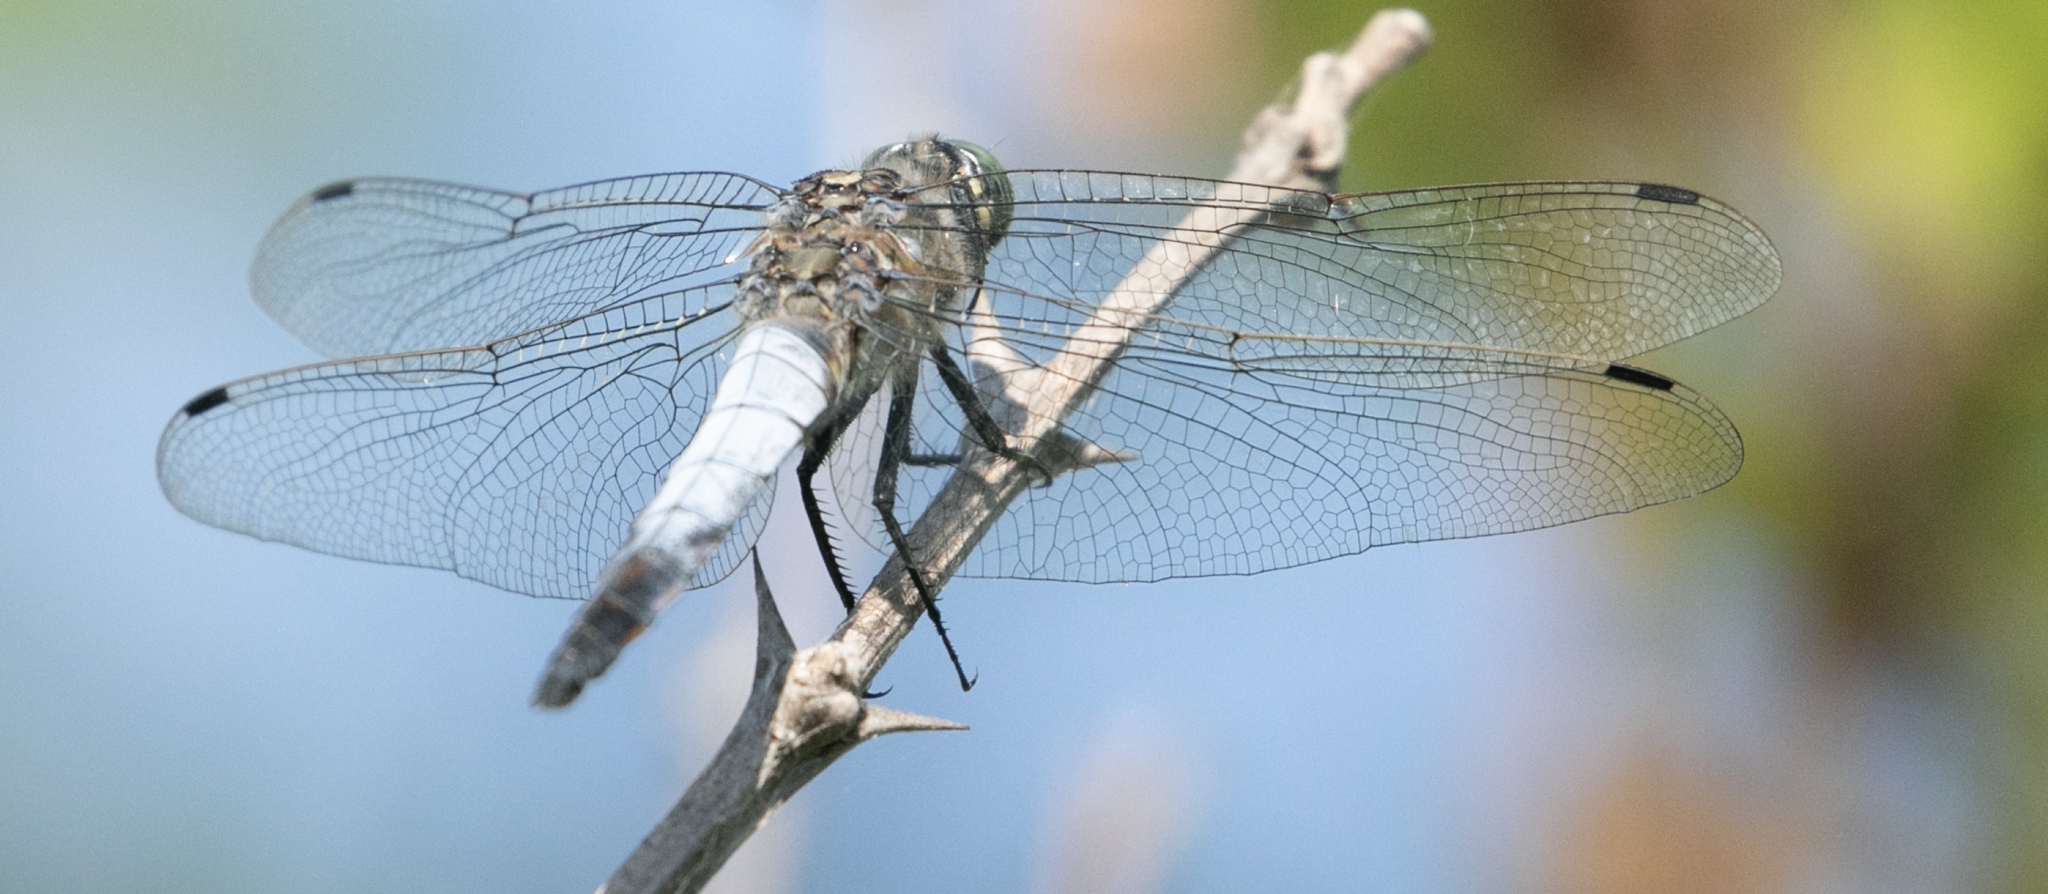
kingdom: Animalia
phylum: Arthropoda
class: Insecta
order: Odonata
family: Libellulidae
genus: Orthetrum
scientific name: Orthetrum cancellatum
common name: Black-tailed skimmer
